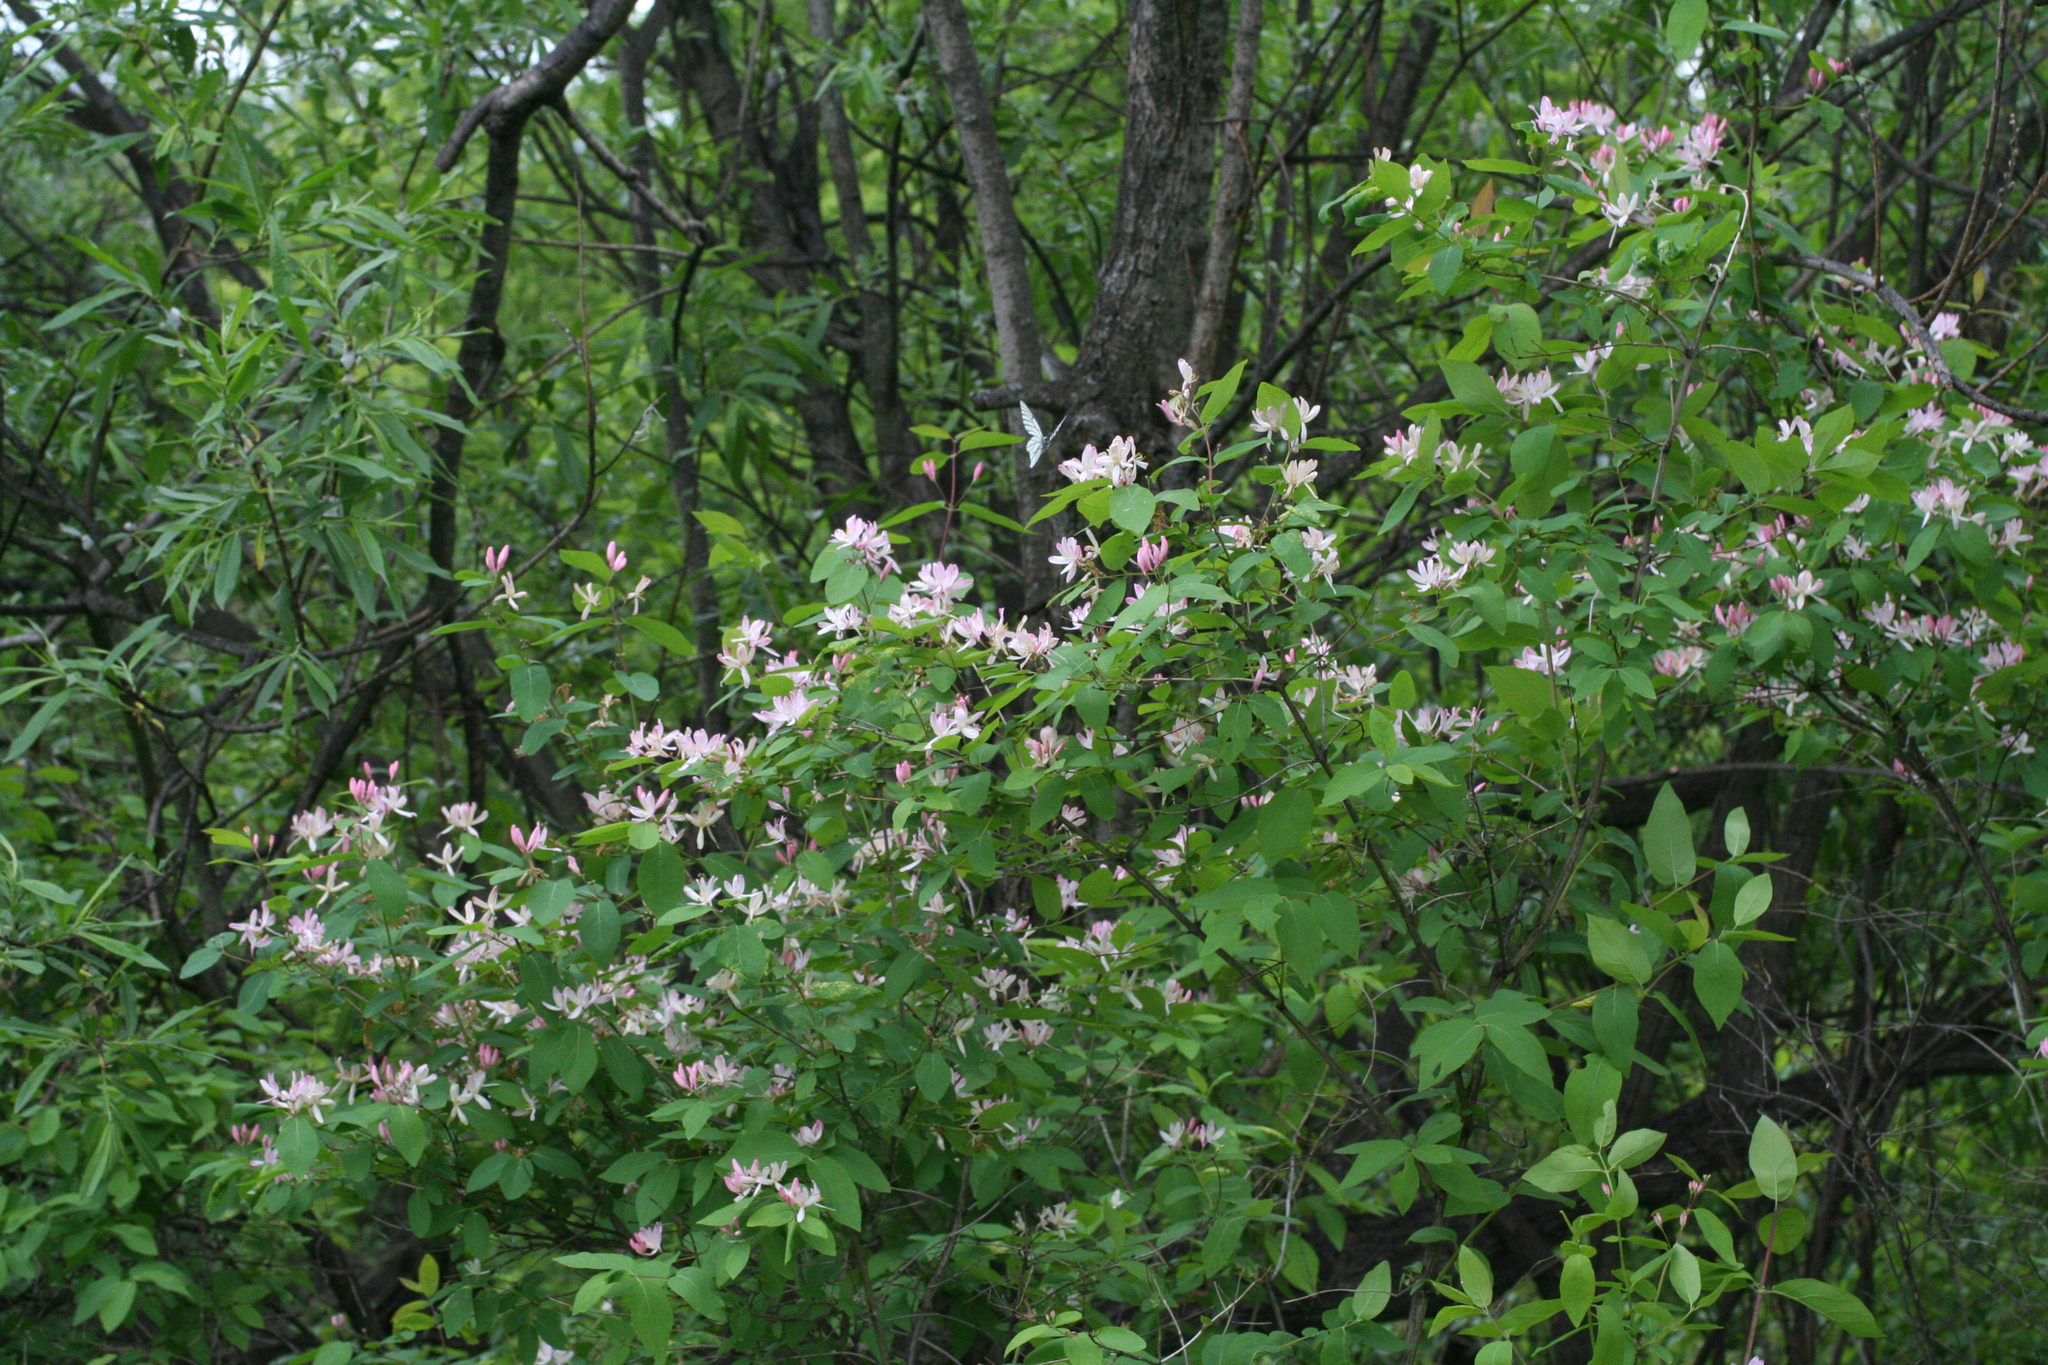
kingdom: Plantae
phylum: Tracheophyta
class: Magnoliopsida
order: Dipsacales
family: Caprifoliaceae
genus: Lonicera
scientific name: Lonicera tatarica
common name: Tatarian honeysuckle
